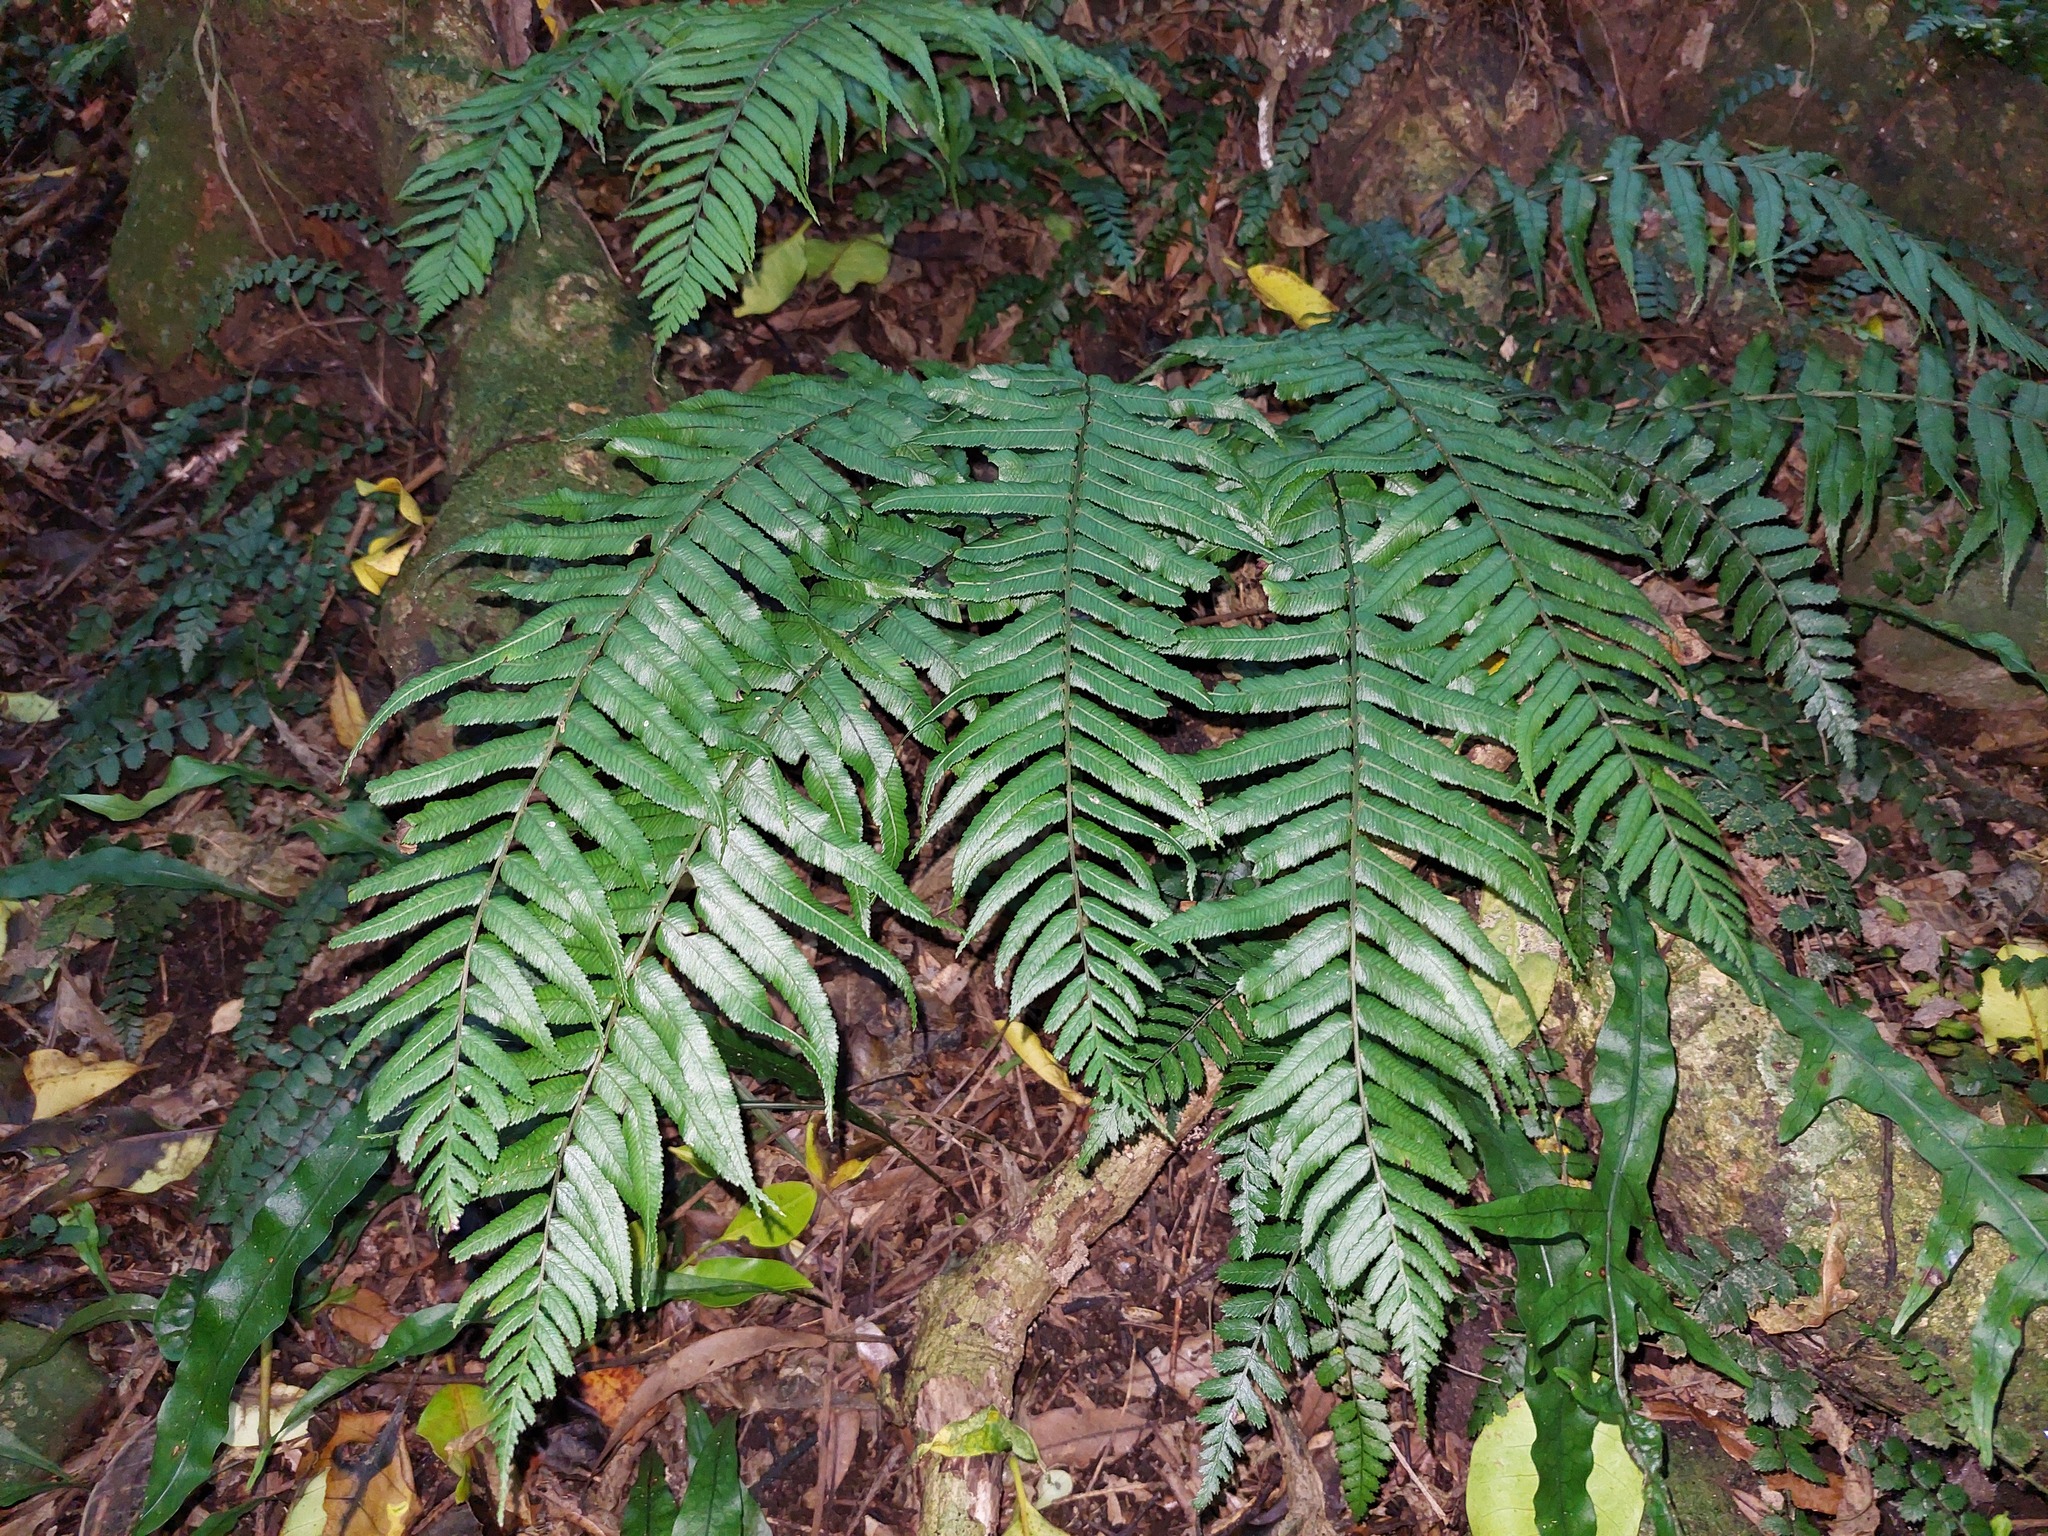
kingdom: Plantae
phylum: Tracheophyta
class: Polypodiopsida
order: Polypodiales
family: Blechnaceae
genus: Icarus
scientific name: Icarus filiformis
